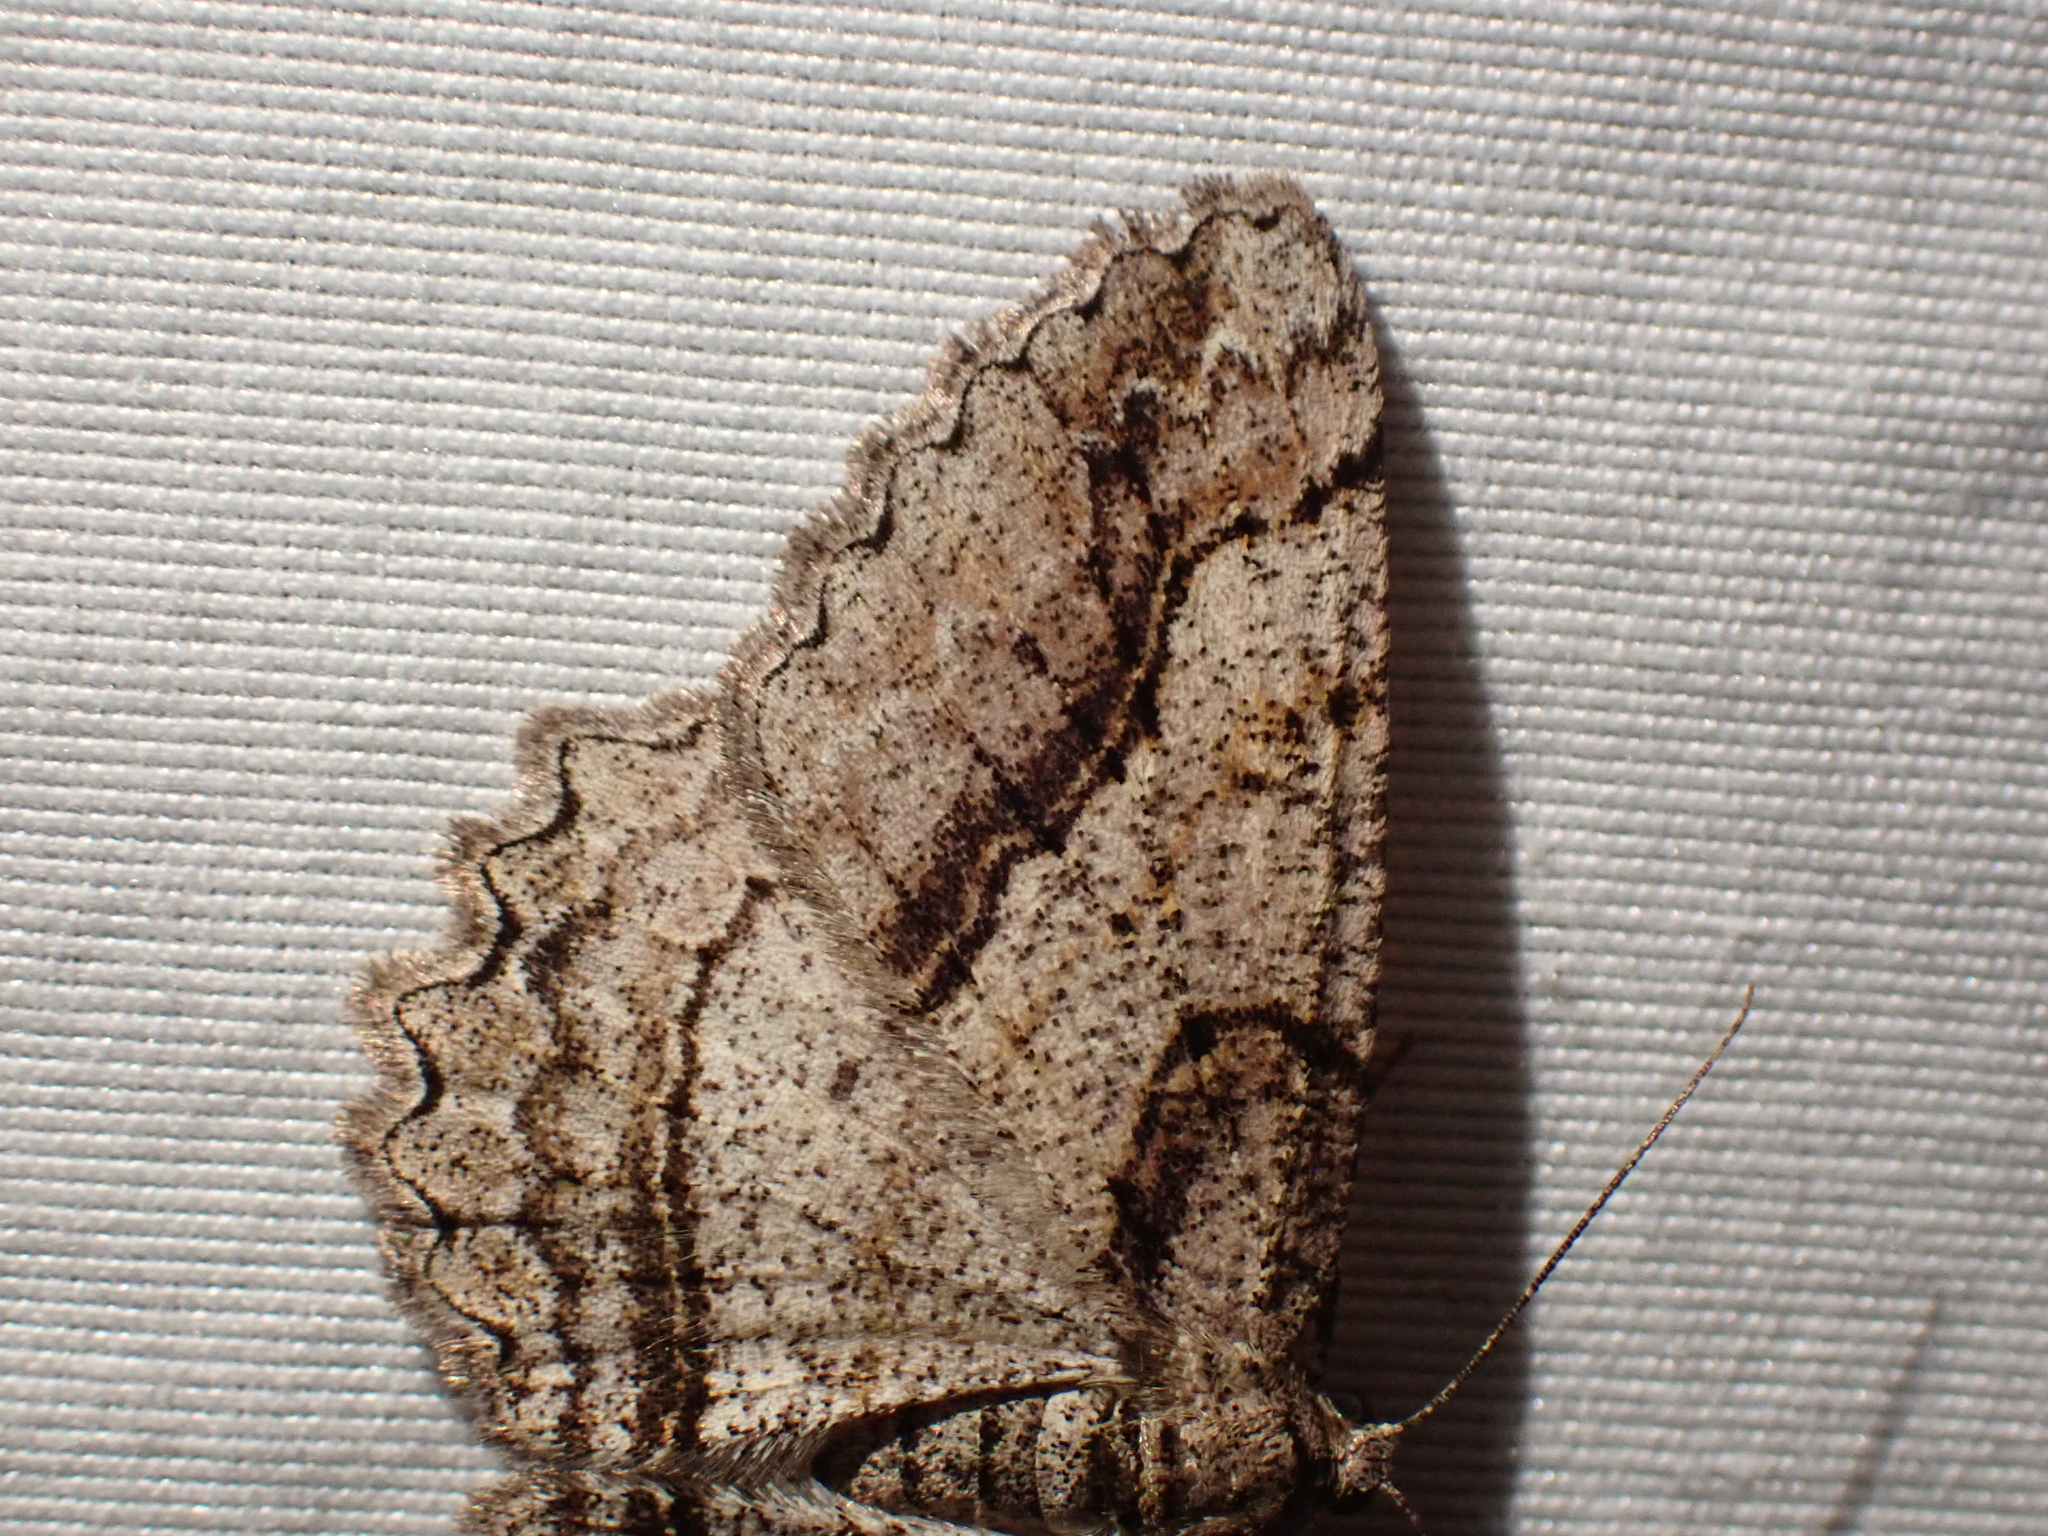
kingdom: Animalia
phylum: Arthropoda
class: Insecta
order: Lepidoptera
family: Geometridae
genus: Neoalcis
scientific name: Neoalcis californiaria
